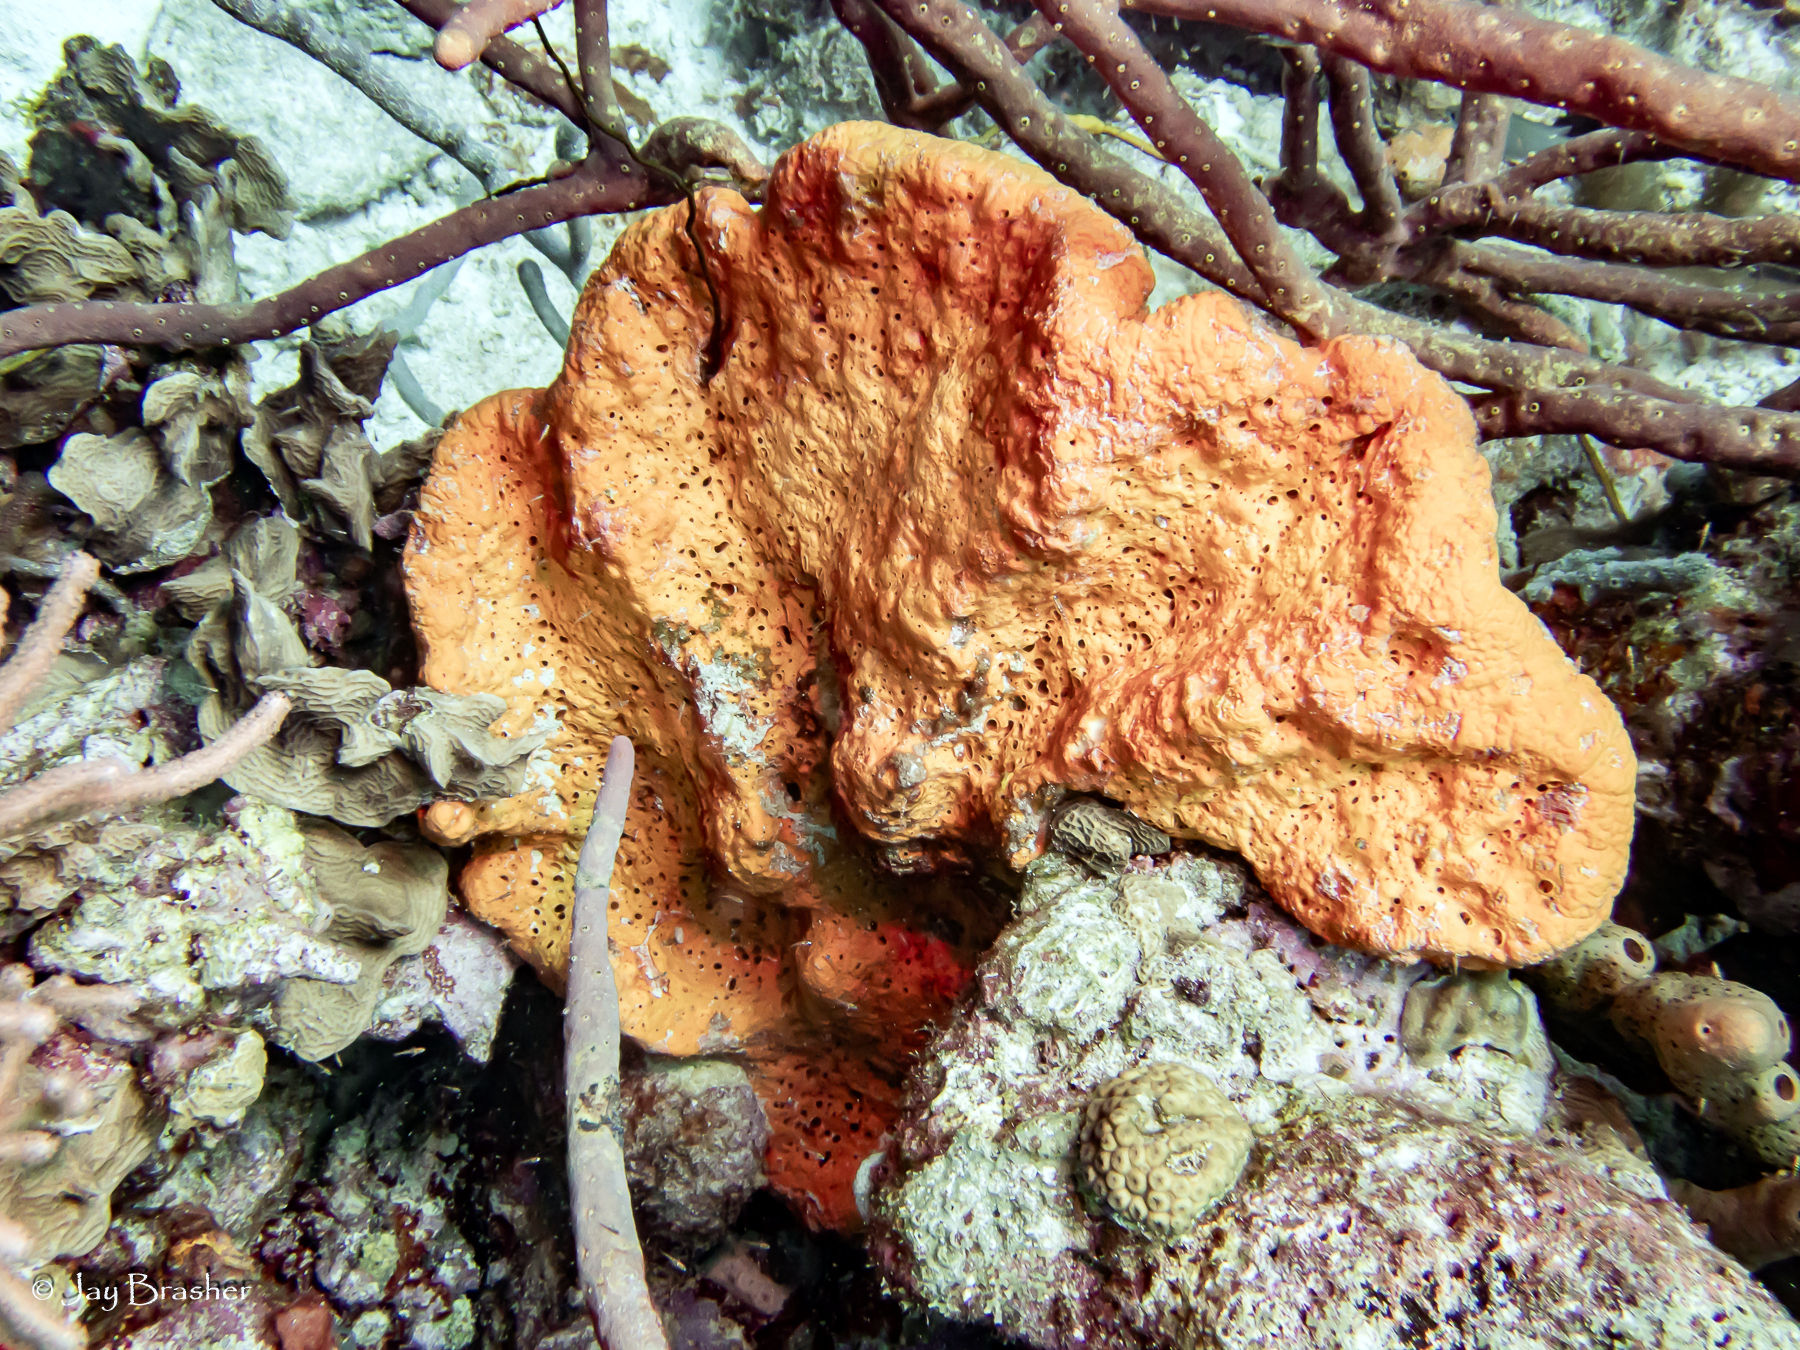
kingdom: Animalia
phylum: Porifera
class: Demospongiae
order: Agelasida
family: Agelasidae
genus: Agelas
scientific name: Agelas clathrodes
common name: Orange elephant ear sponge
